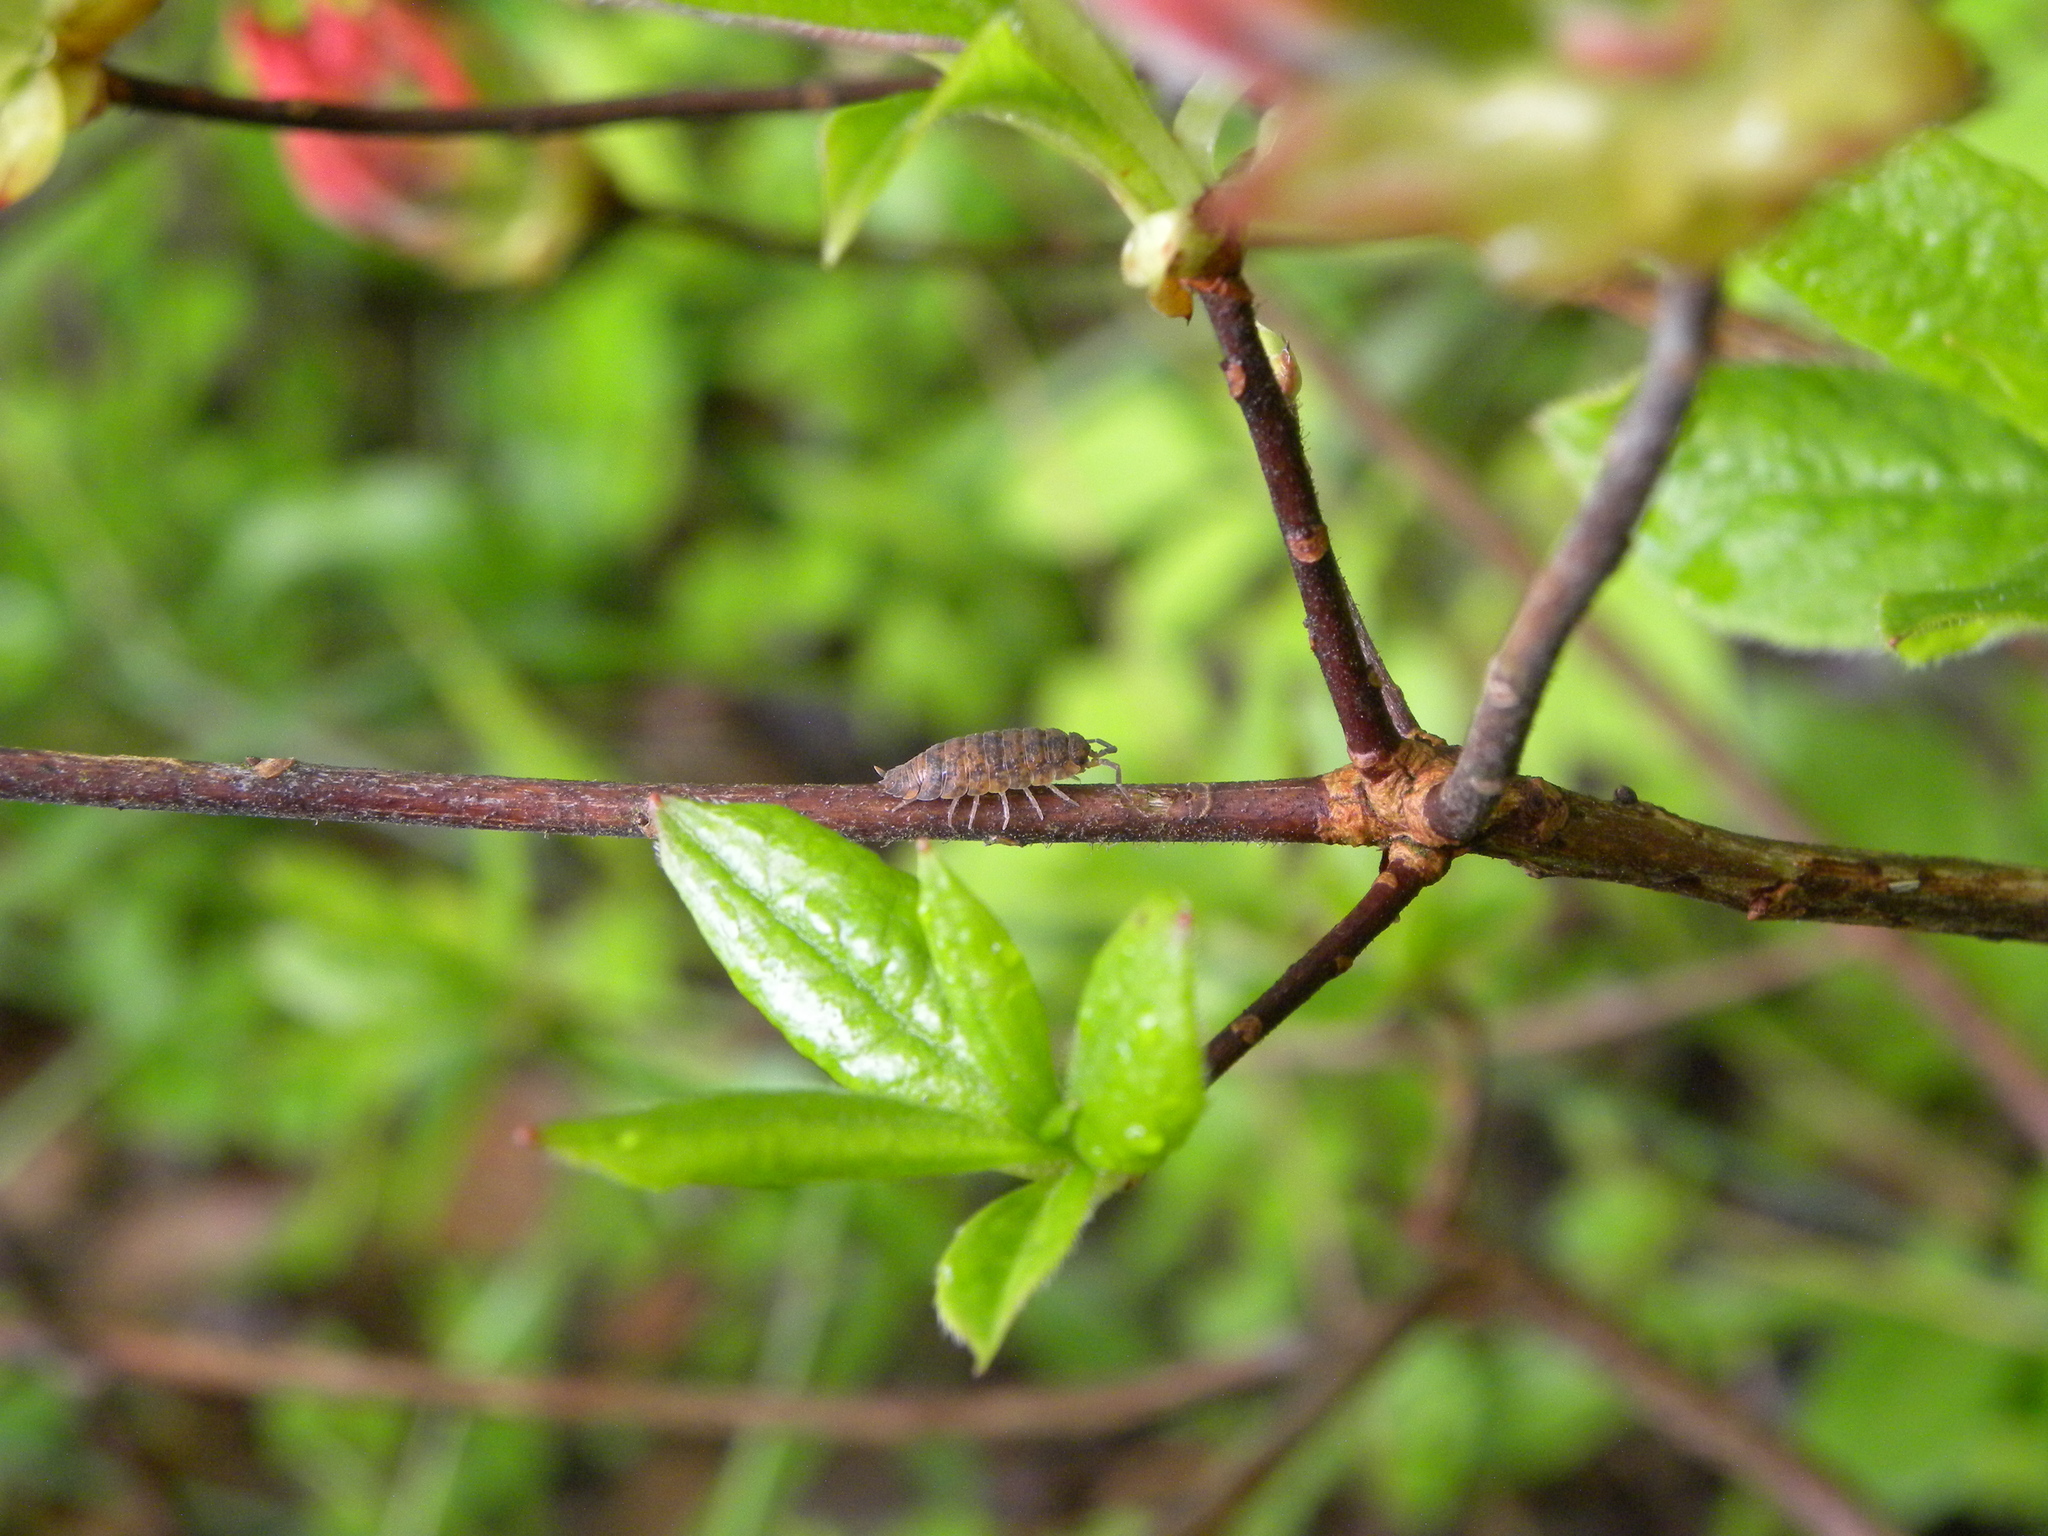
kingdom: Animalia
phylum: Arthropoda
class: Malacostraca
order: Isopoda
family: Porcellionidae
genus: Porcellio
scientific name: Porcellio scaber
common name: Common rough woodlouse
